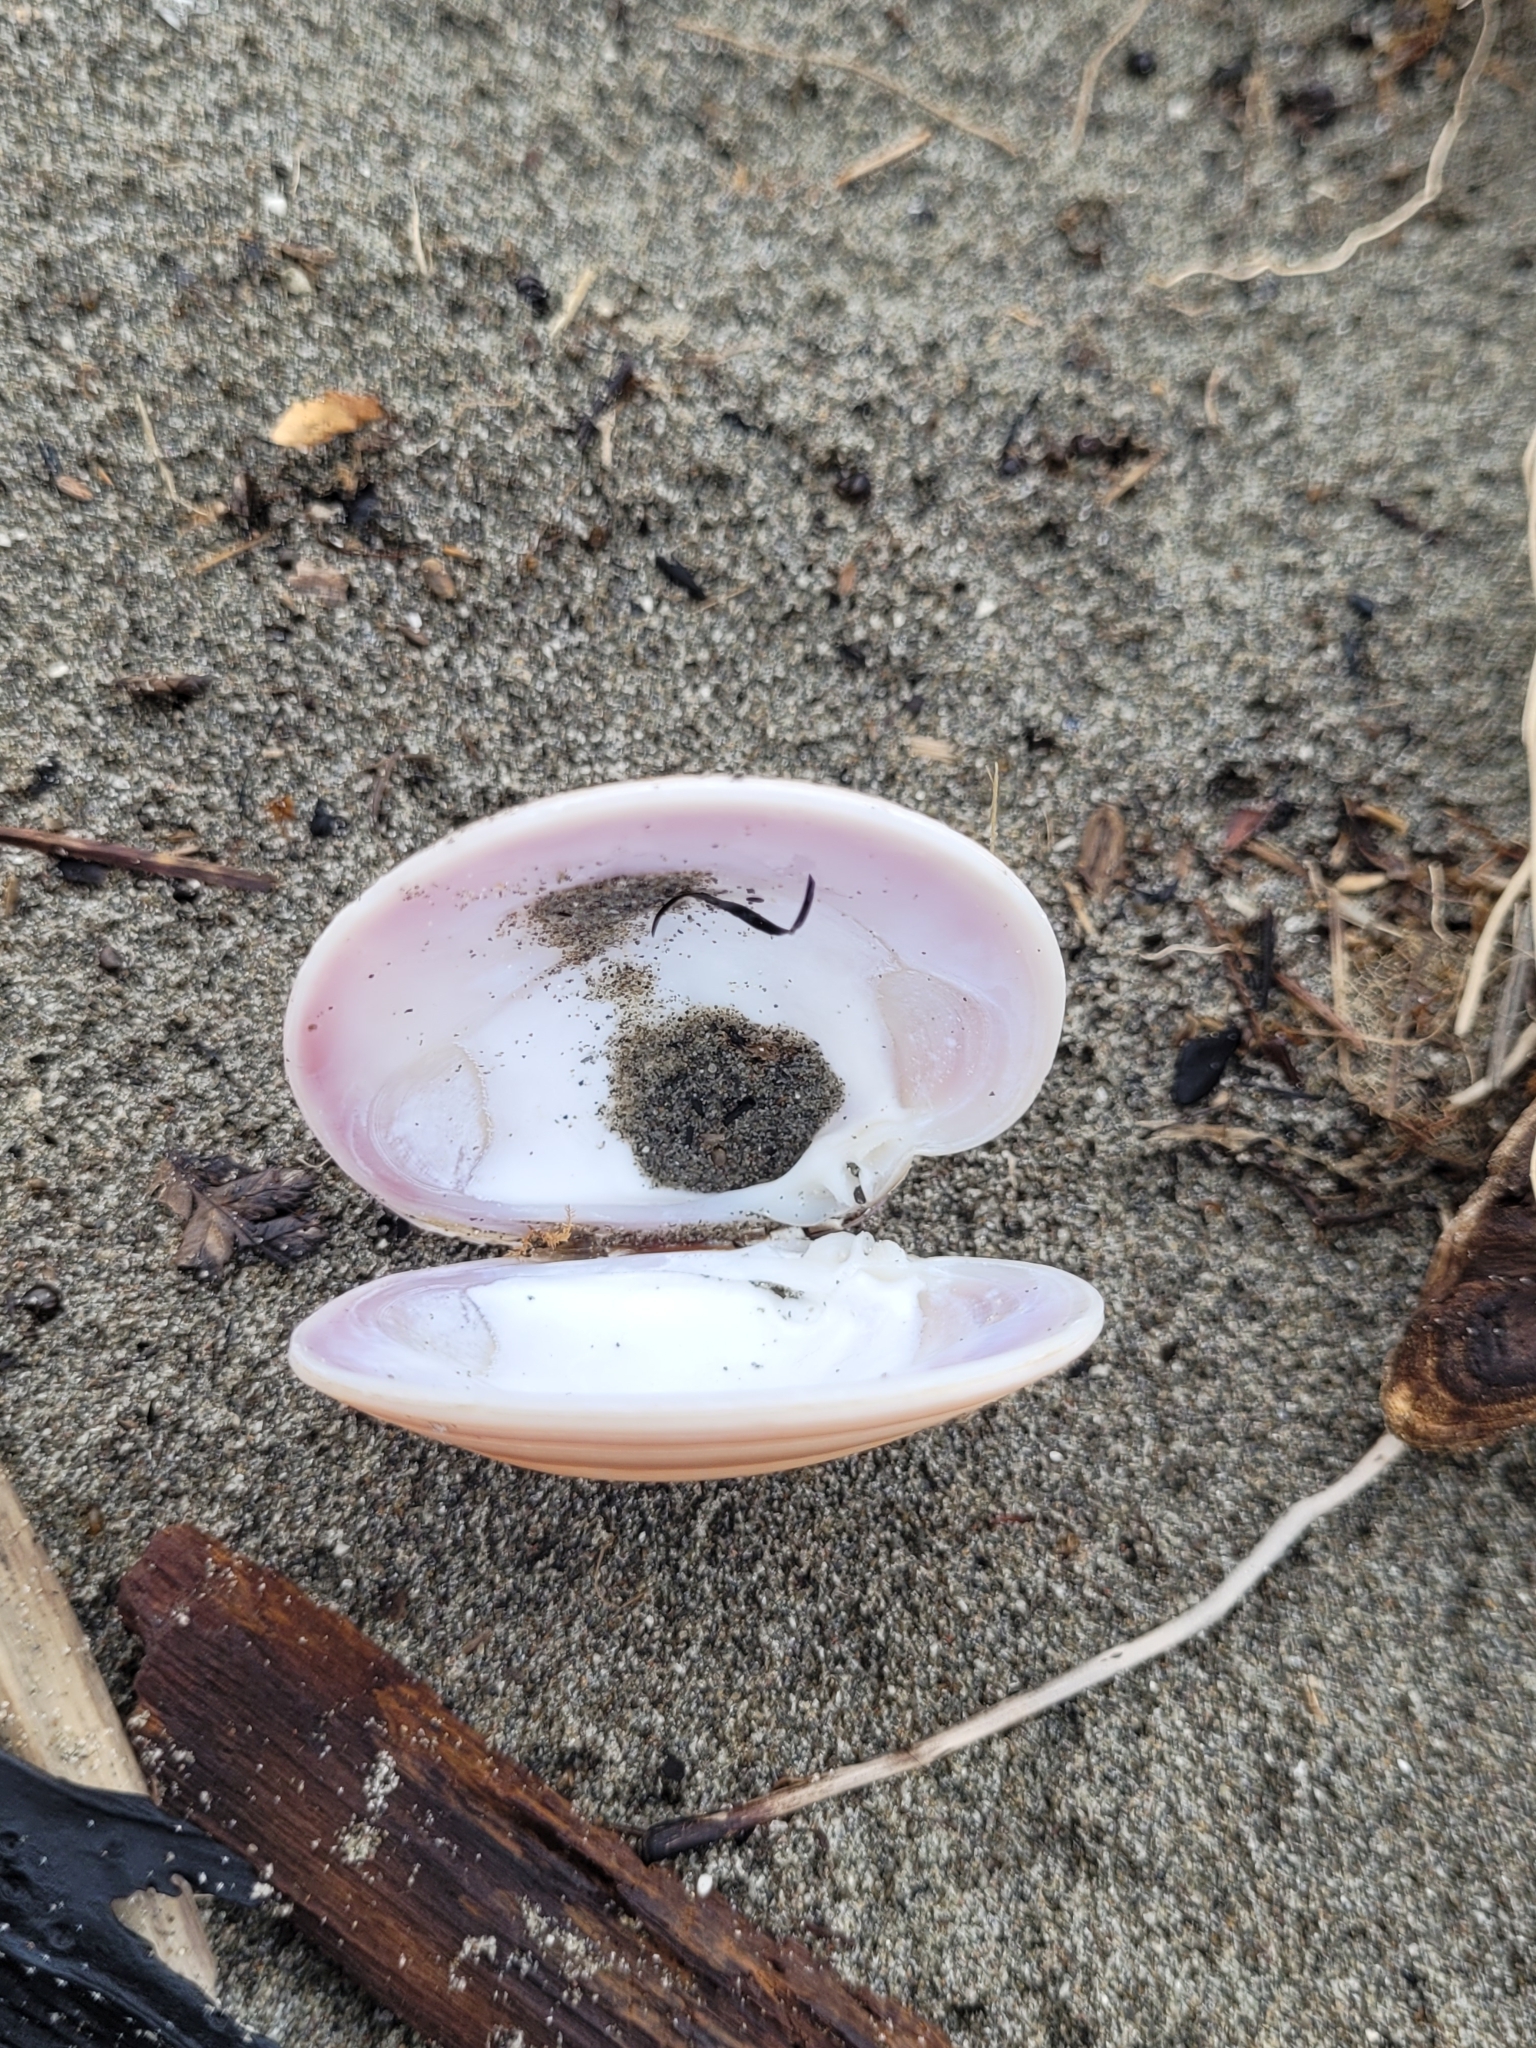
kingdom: Animalia
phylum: Mollusca
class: Bivalvia
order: Venerida
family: Veneridae
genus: Dosinia
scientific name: Dosinia anus
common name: Old-woman dosinia
